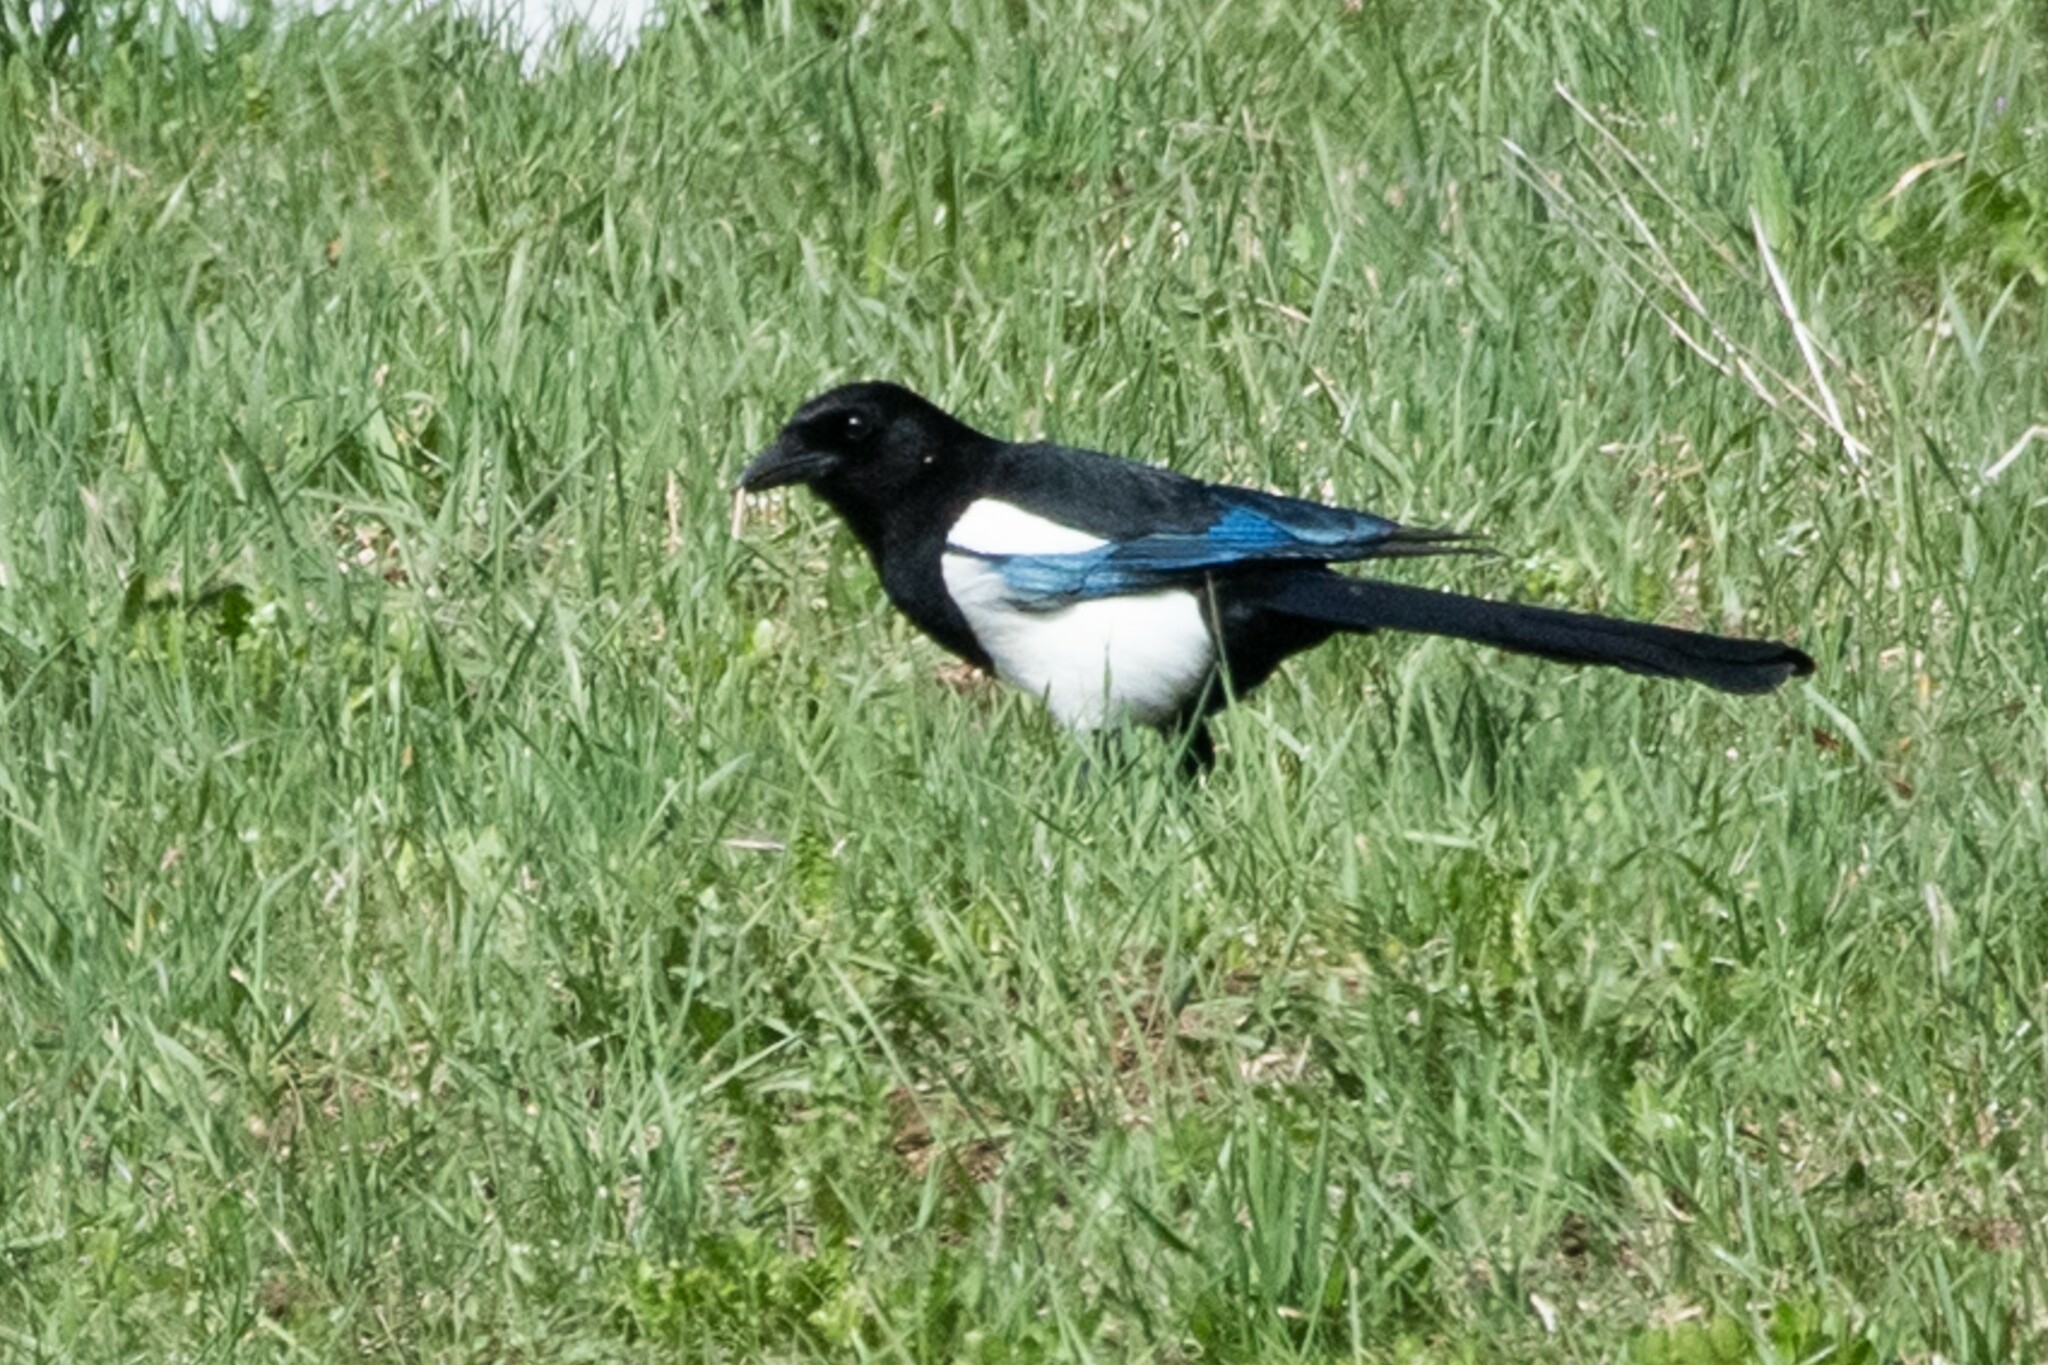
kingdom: Animalia
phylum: Chordata
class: Aves
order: Passeriformes
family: Corvidae
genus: Pica
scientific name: Pica pica
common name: Eurasian magpie
